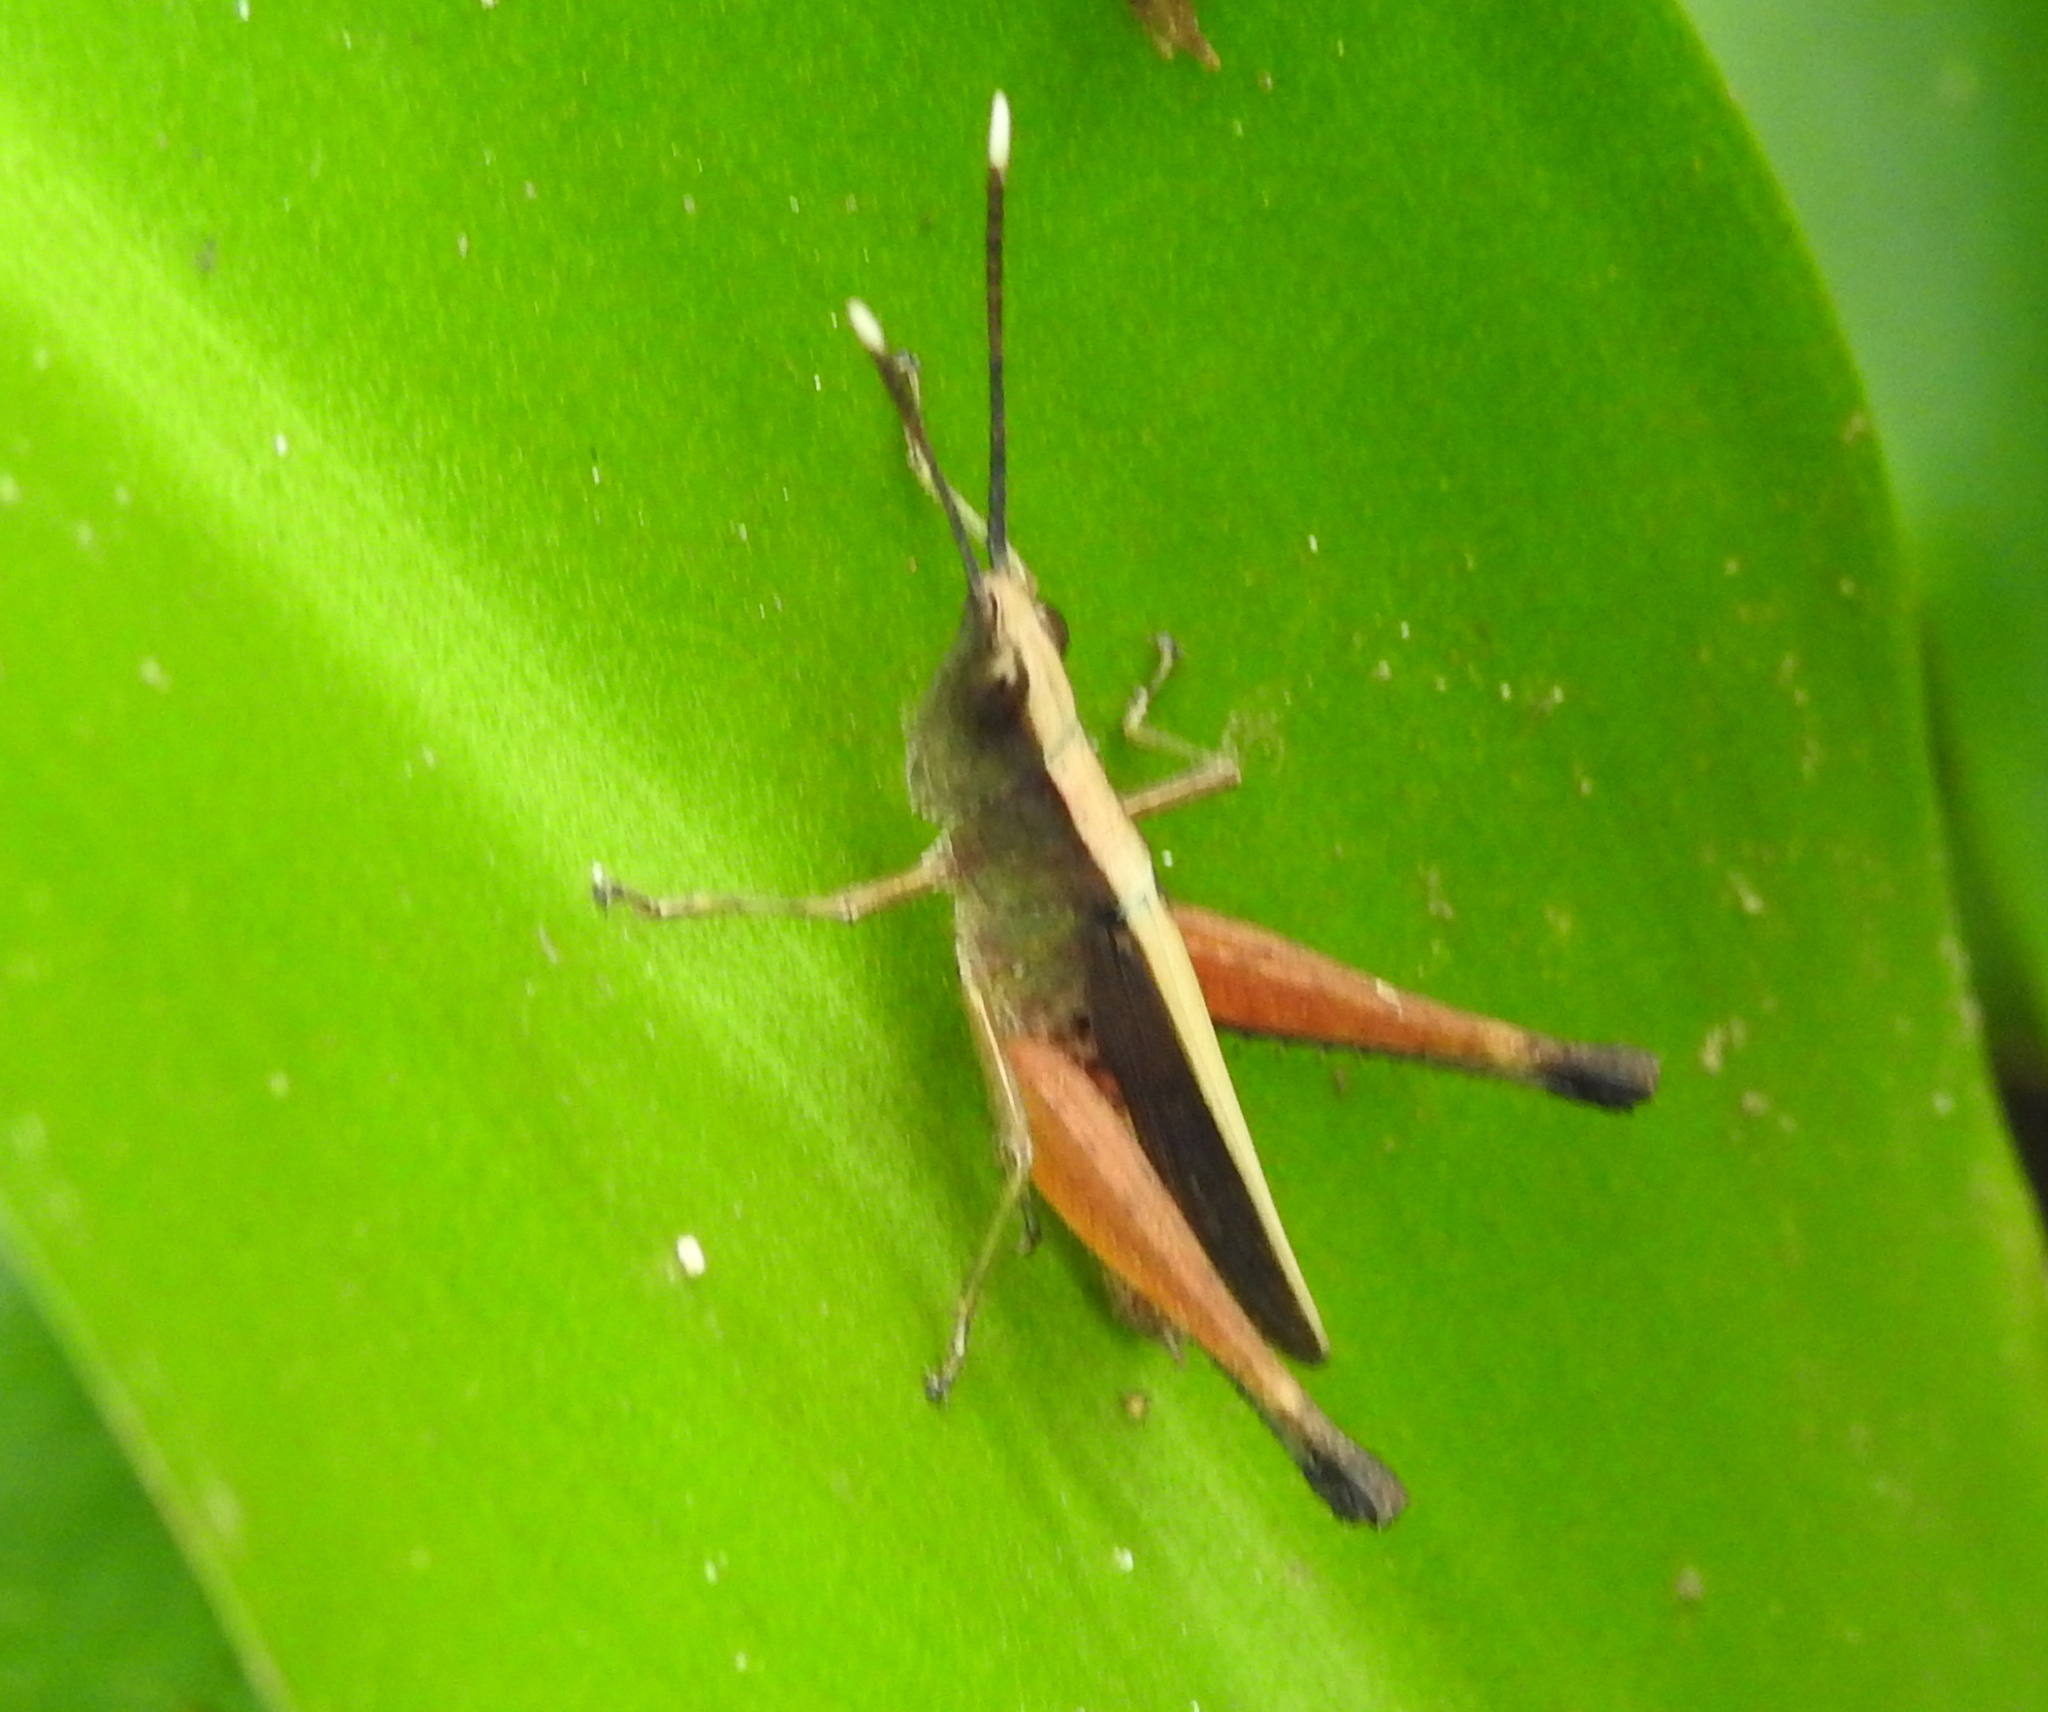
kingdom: Animalia
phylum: Arthropoda
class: Insecta
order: Orthoptera
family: Acrididae
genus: Phlaeoba
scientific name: Phlaeoba antennata
